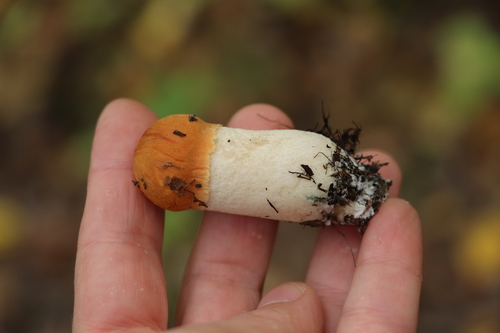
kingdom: Fungi
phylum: Basidiomycota
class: Agaricomycetes
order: Boletales
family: Boletaceae
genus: Leccinum
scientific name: Leccinum albostipitatum
